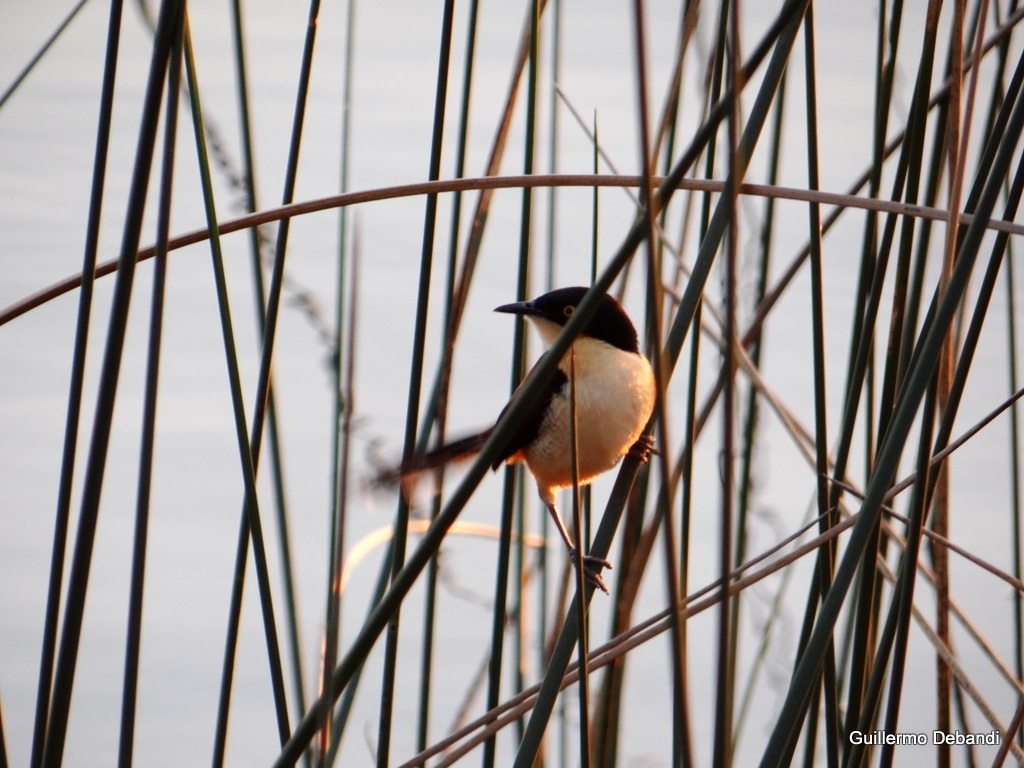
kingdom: Animalia
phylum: Chordata
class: Aves
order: Passeriformes
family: Donacobiidae
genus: Donacobius
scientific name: Donacobius atricapilla
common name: Black-capped donacobius
